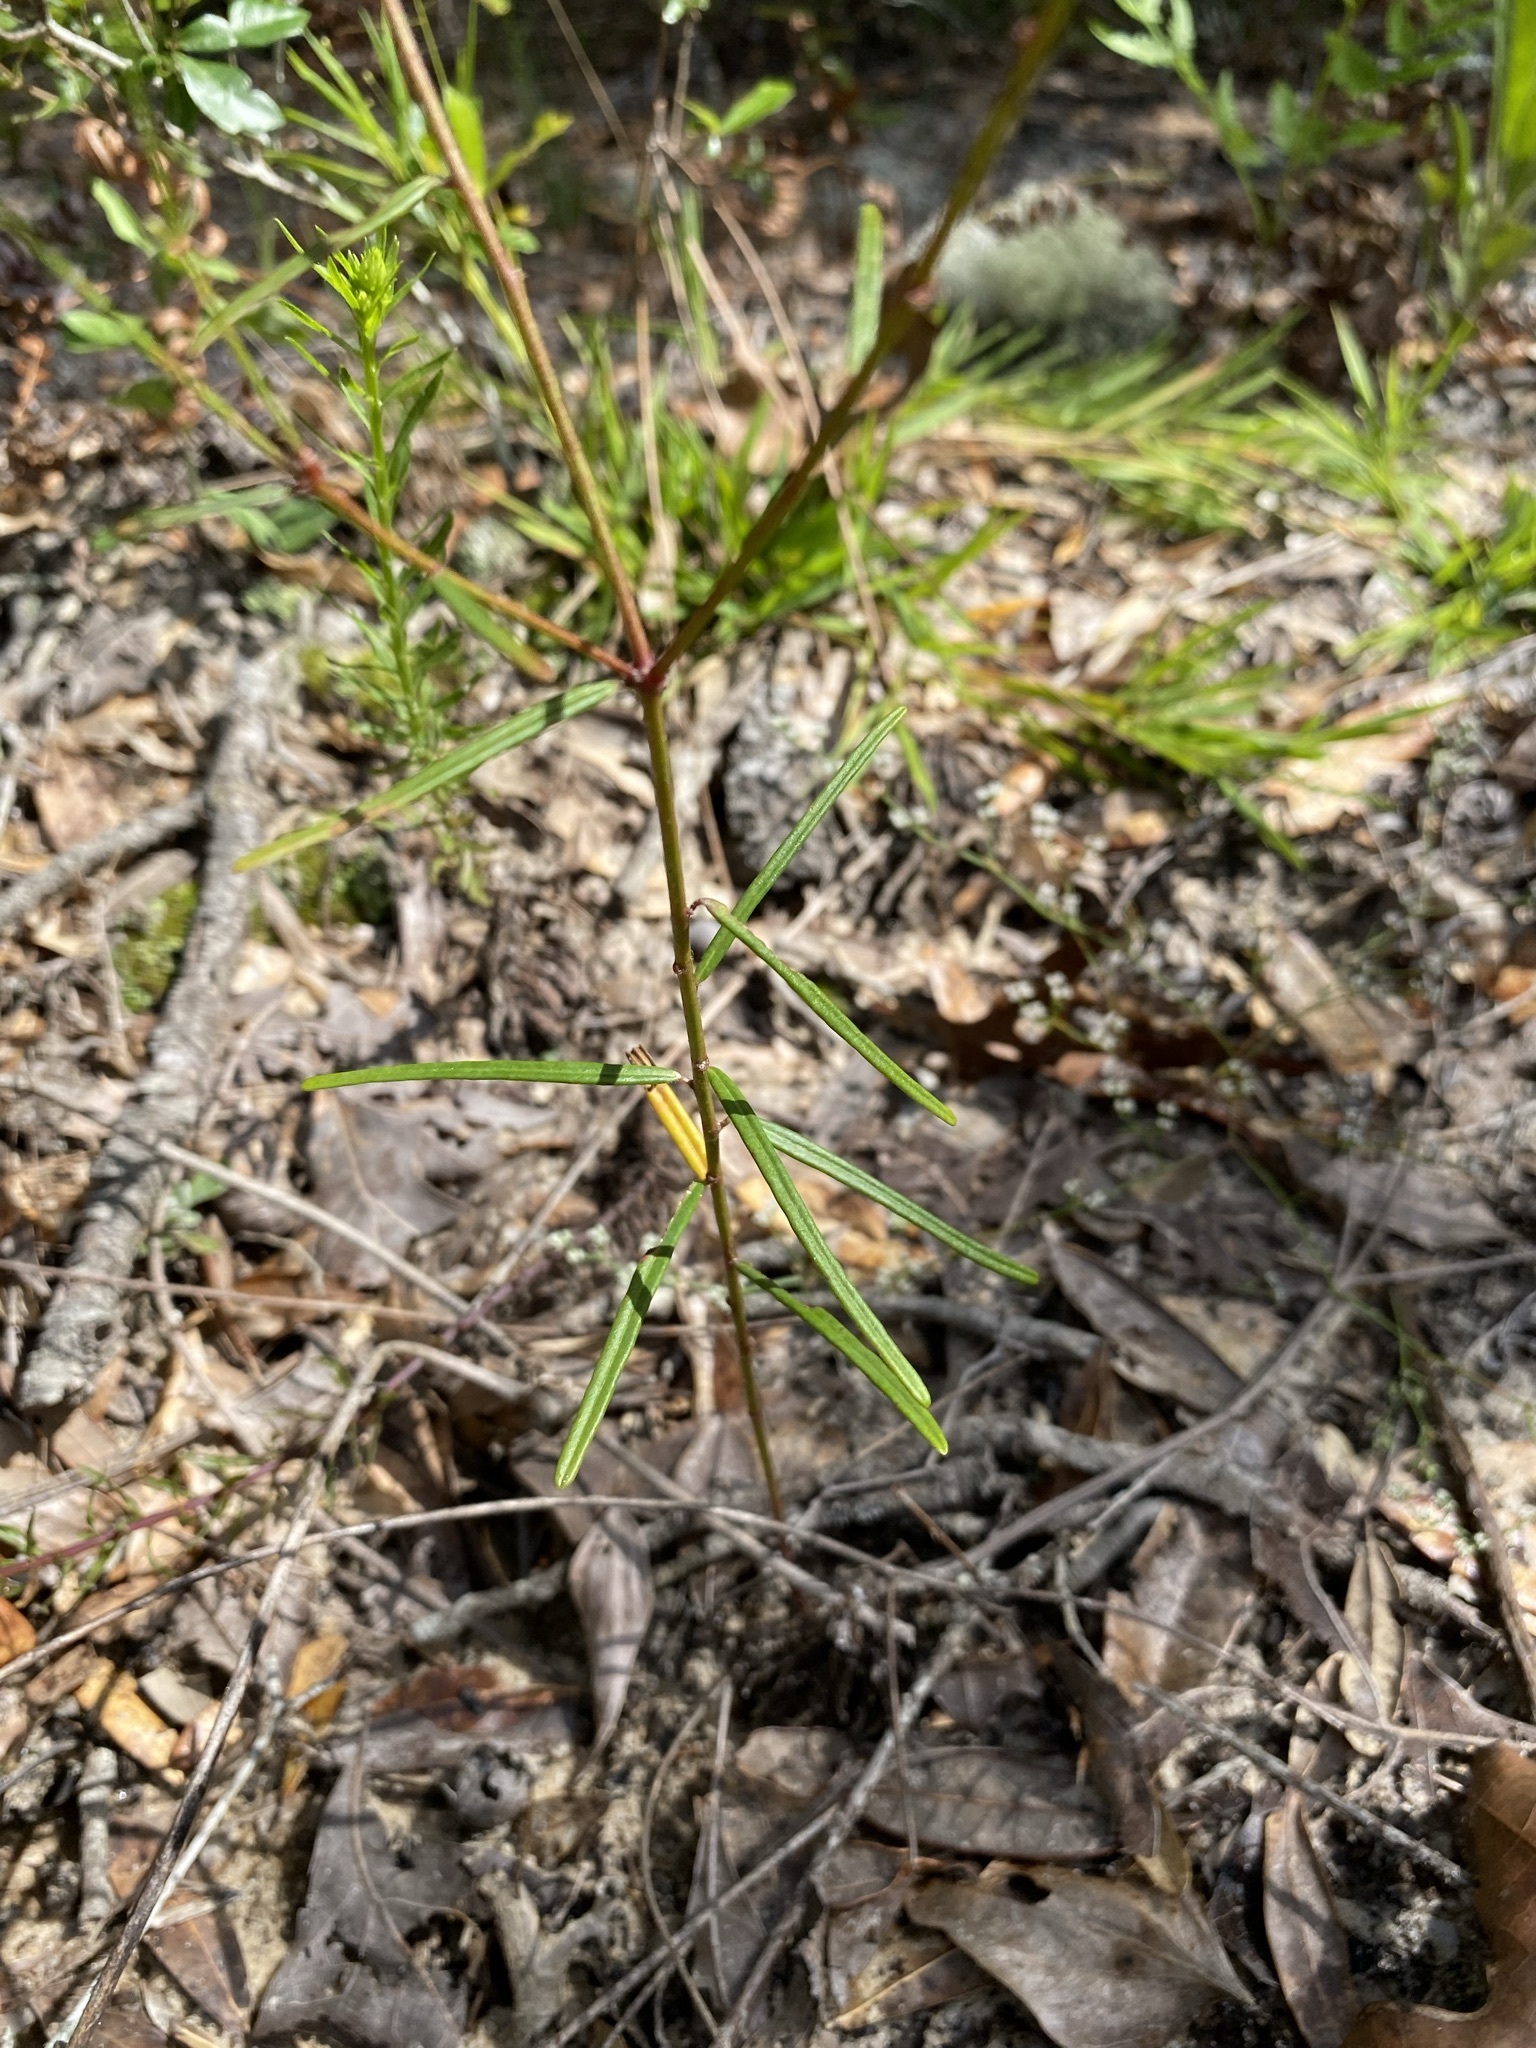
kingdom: Plantae
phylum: Tracheophyta
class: Magnoliopsida
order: Malpighiales
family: Euphorbiaceae
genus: Euphorbia
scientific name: Euphorbia discoidalis
